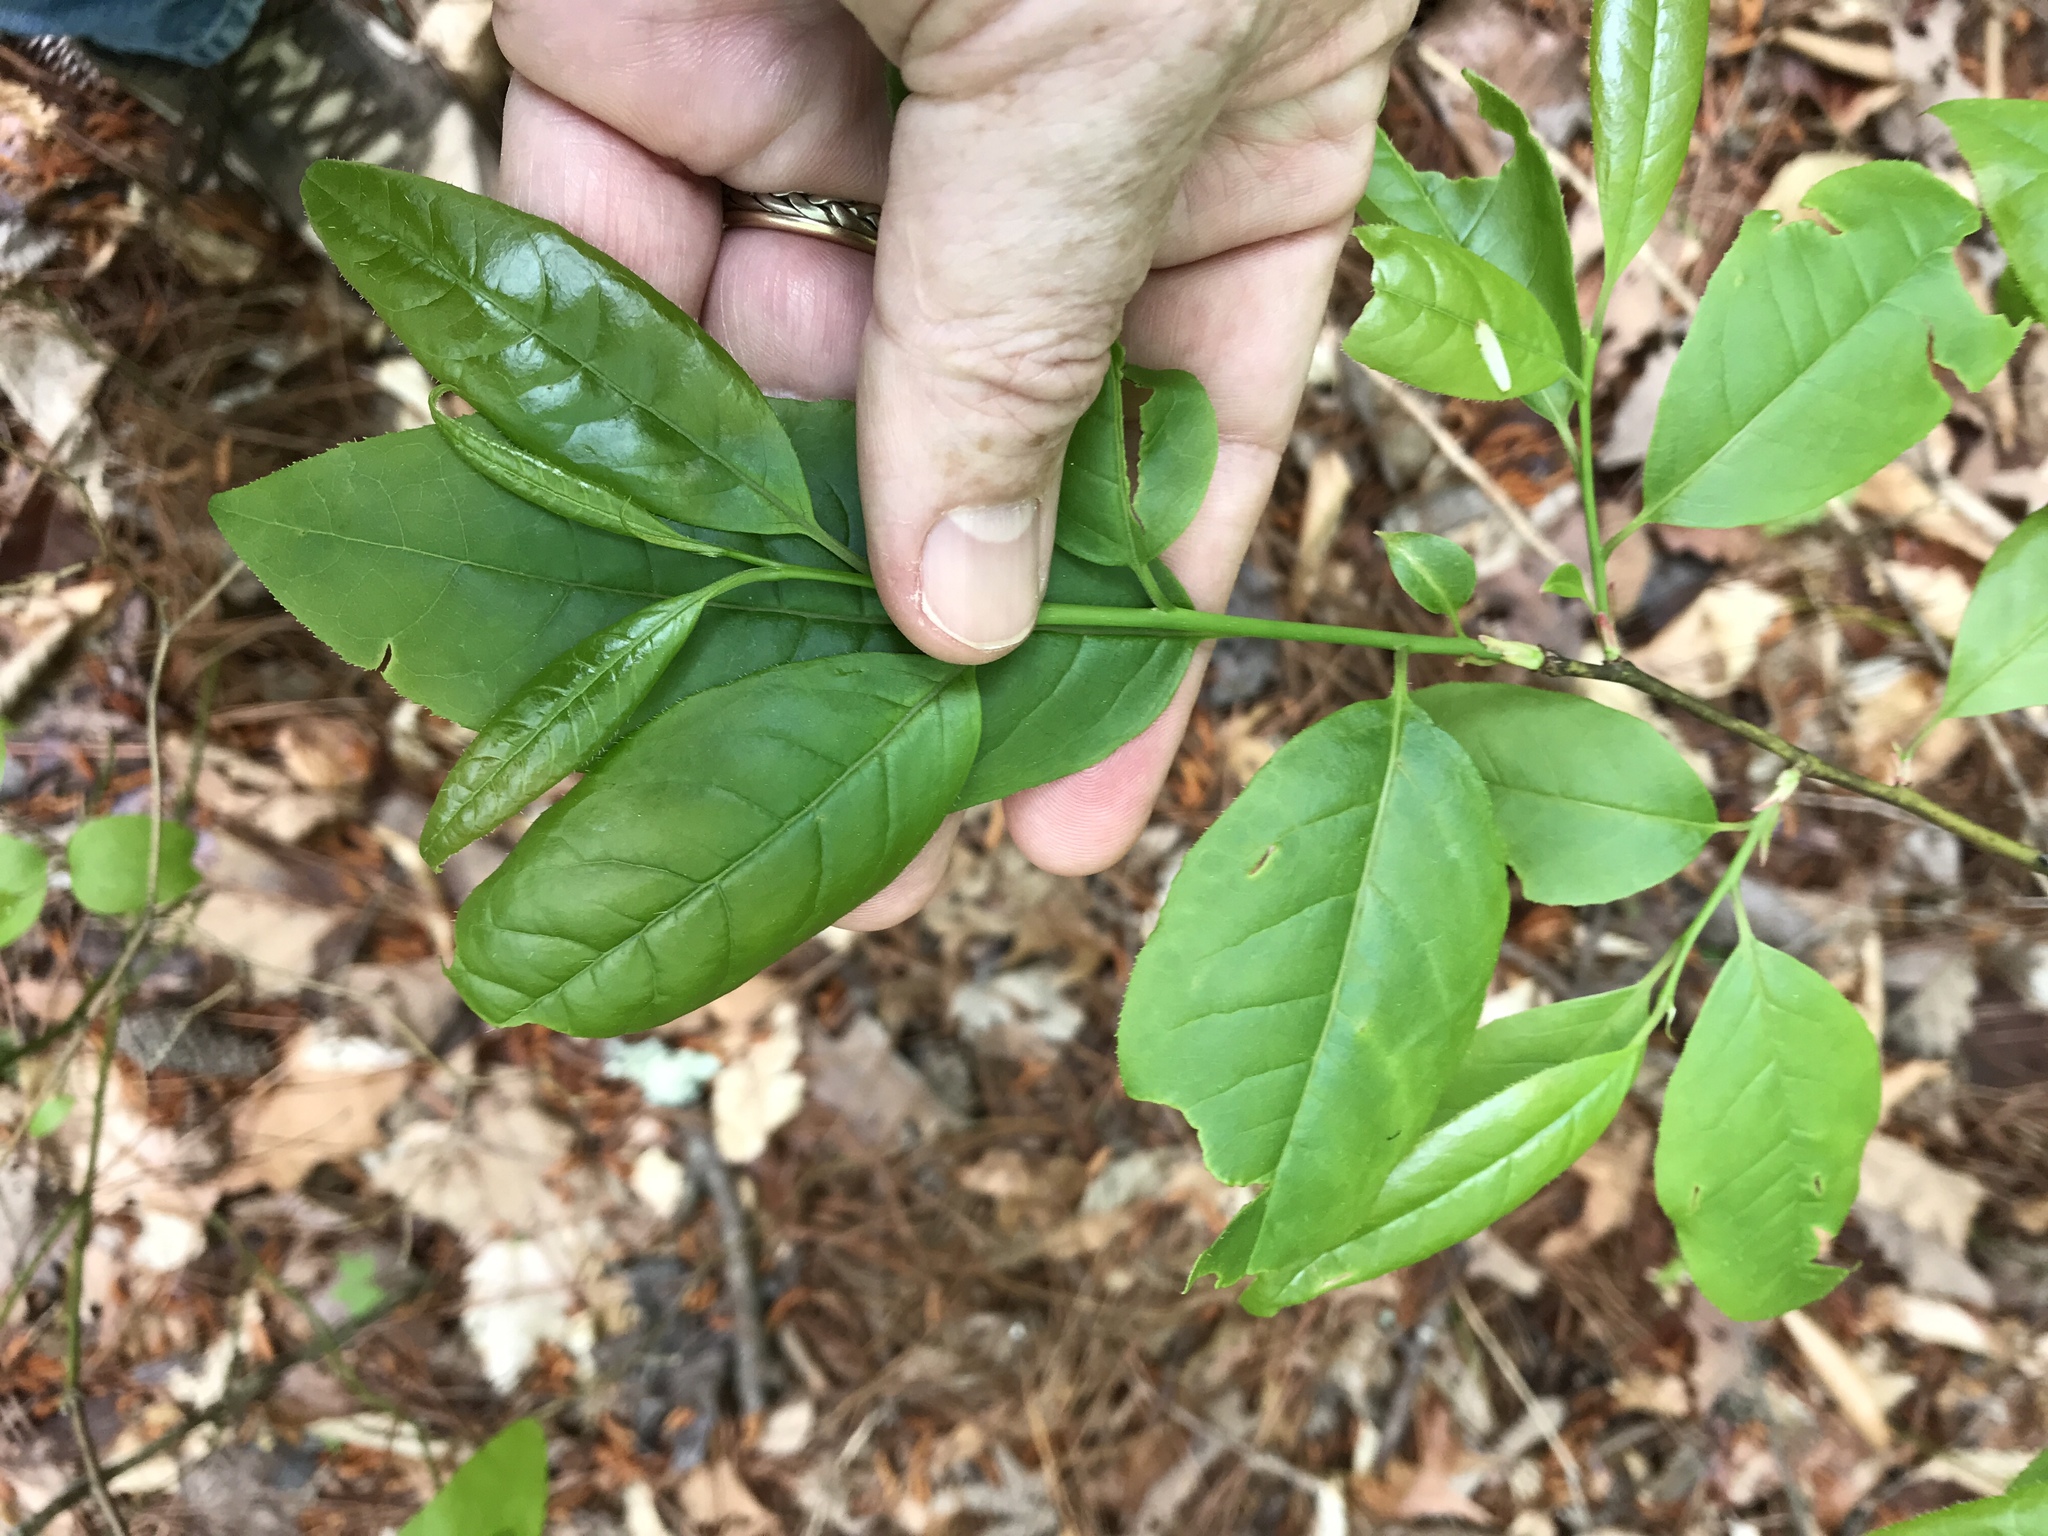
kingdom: Plantae
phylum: Tracheophyta
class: Magnoliopsida
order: Ericales
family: Ericaceae
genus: Oxydendrum
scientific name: Oxydendrum arboreum
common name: Sourwood
